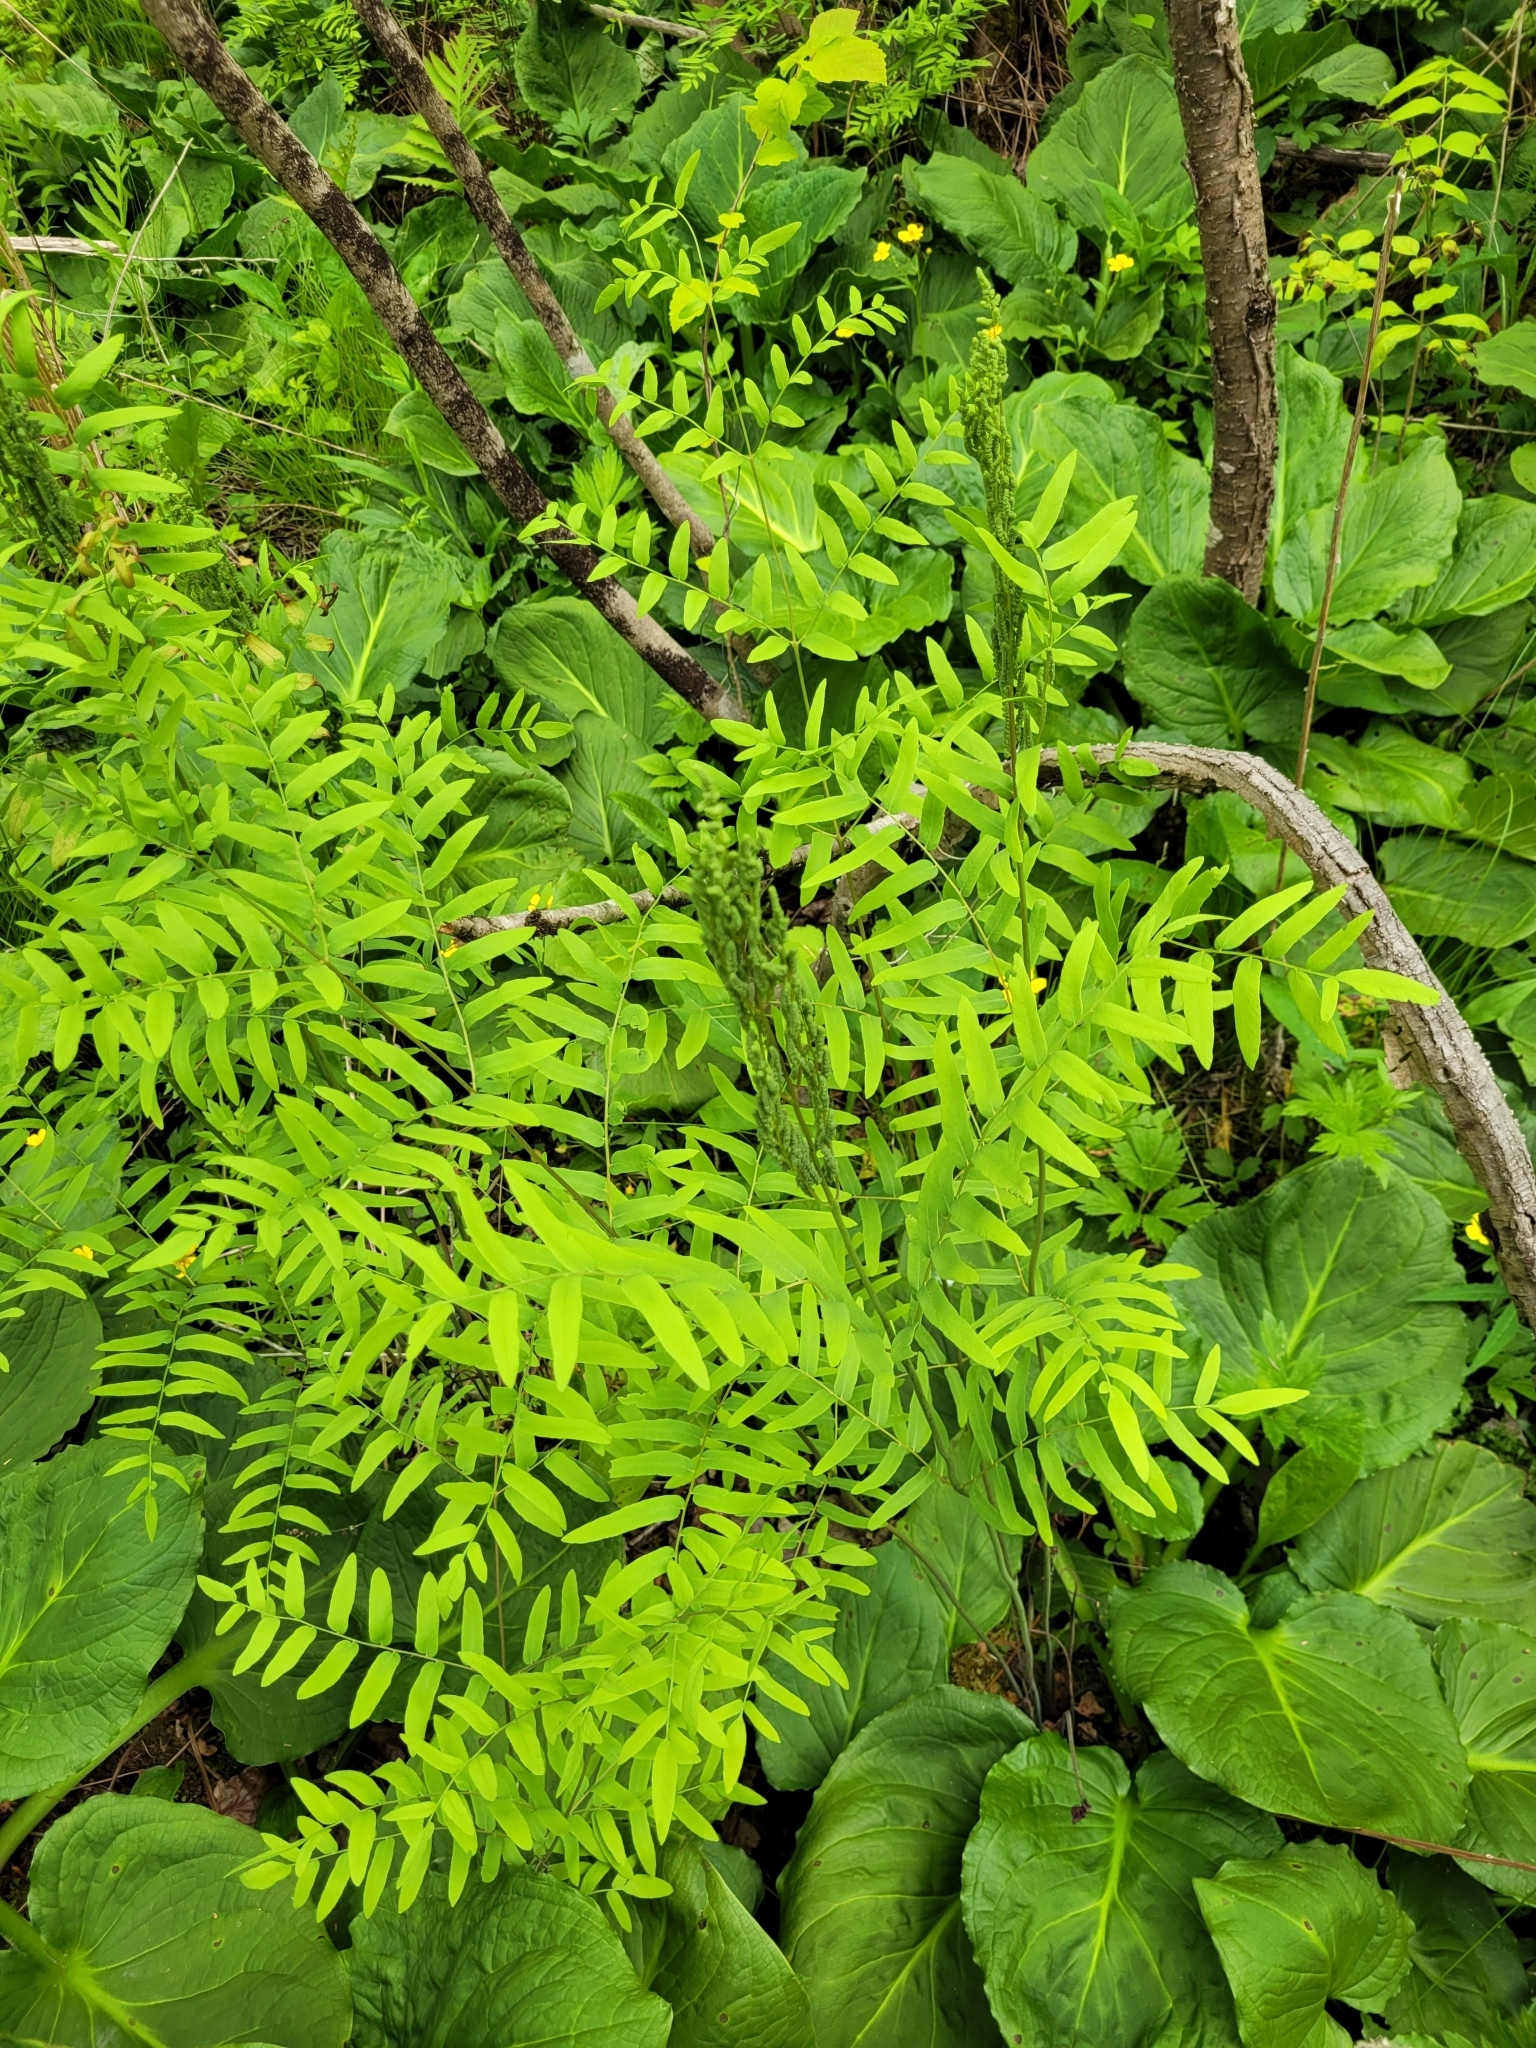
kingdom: Plantae
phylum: Tracheophyta
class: Polypodiopsida
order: Osmundales
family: Osmundaceae
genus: Osmunda
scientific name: Osmunda spectabilis
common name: American royal fern
